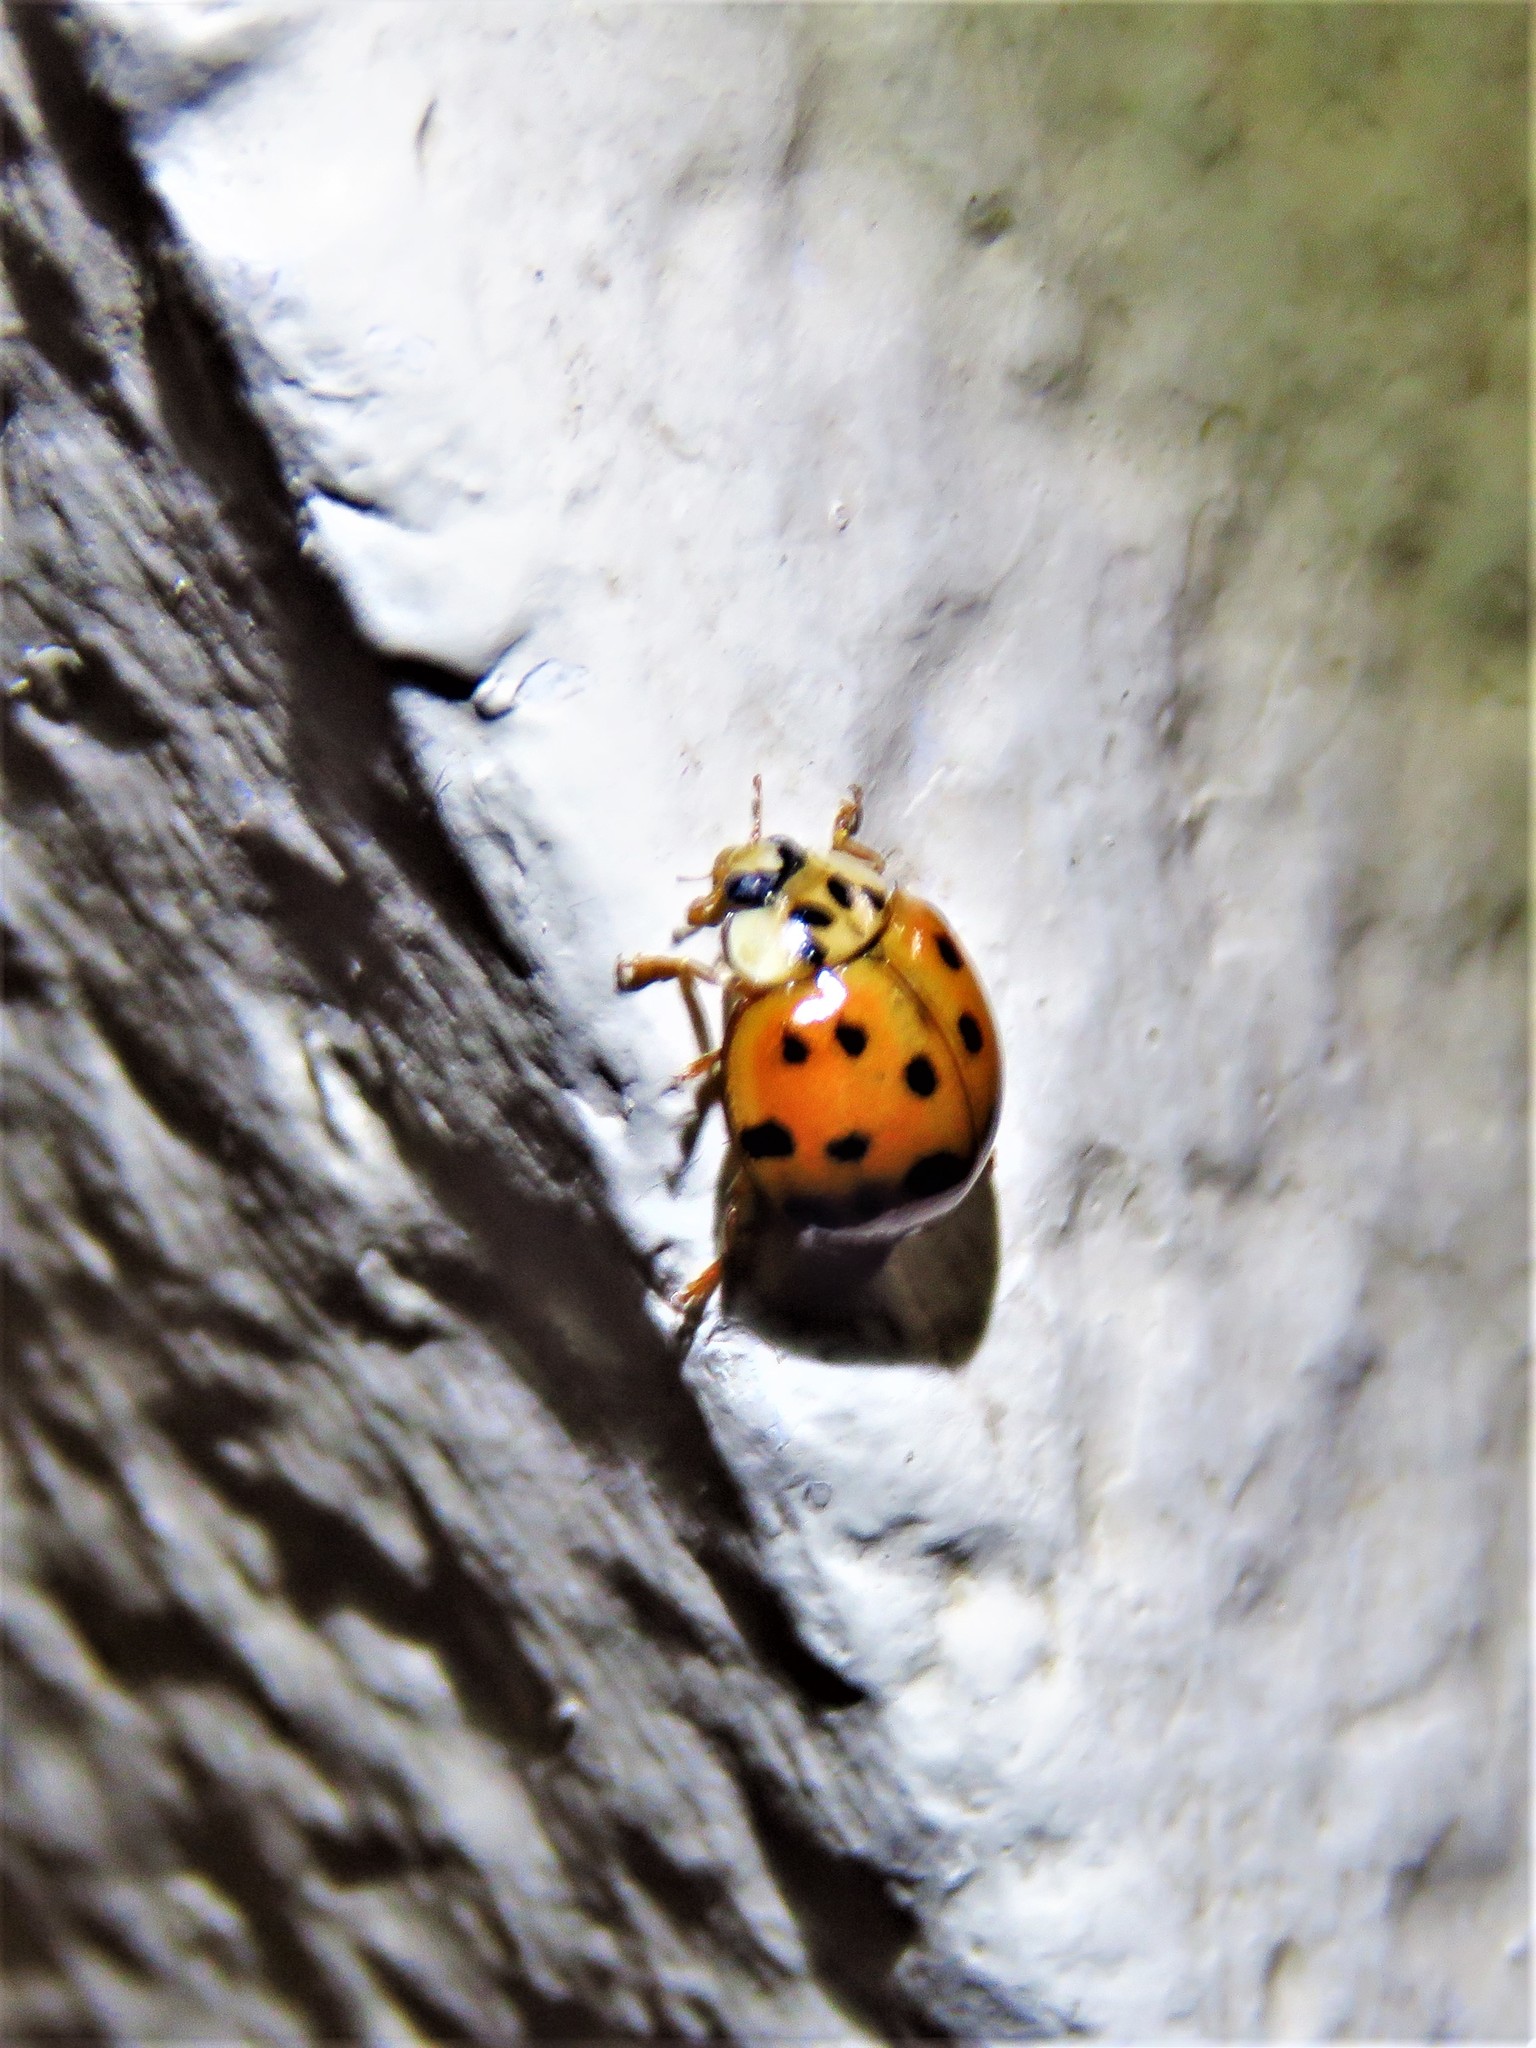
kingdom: Animalia
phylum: Arthropoda
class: Insecta
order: Coleoptera
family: Coccinellidae
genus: Harmonia
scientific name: Harmonia axyridis
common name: Harlequin ladybird
